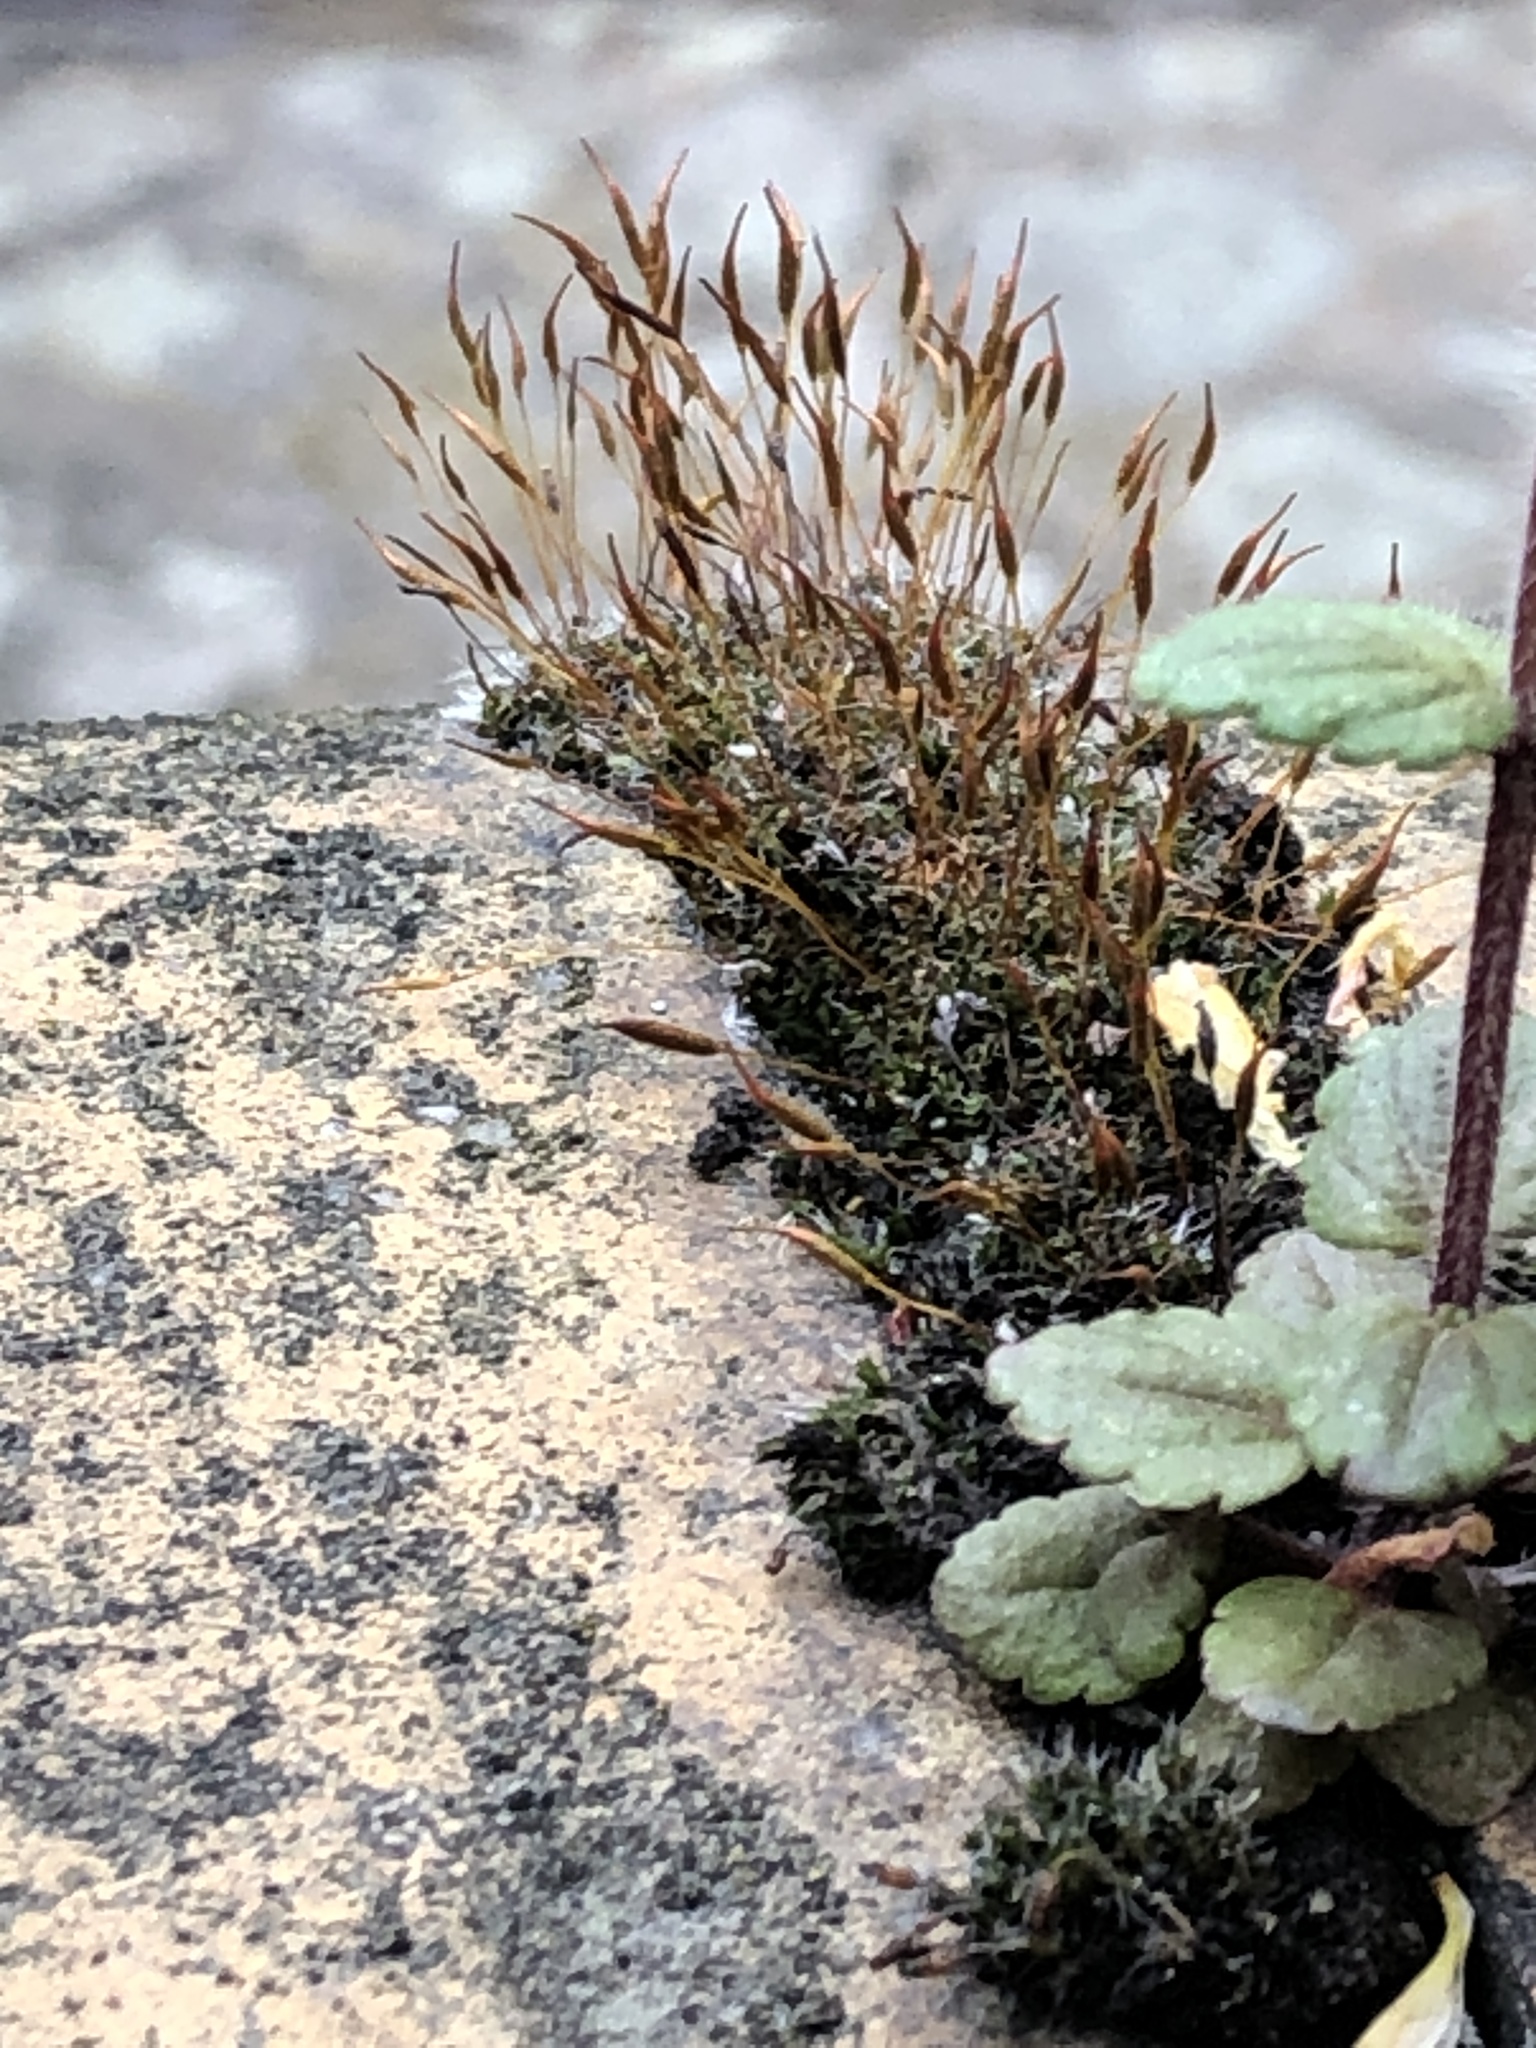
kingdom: Plantae
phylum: Bryophyta
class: Bryopsida
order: Pottiales
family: Pottiaceae
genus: Tortula
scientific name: Tortula muralis
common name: Wall screw-moss
